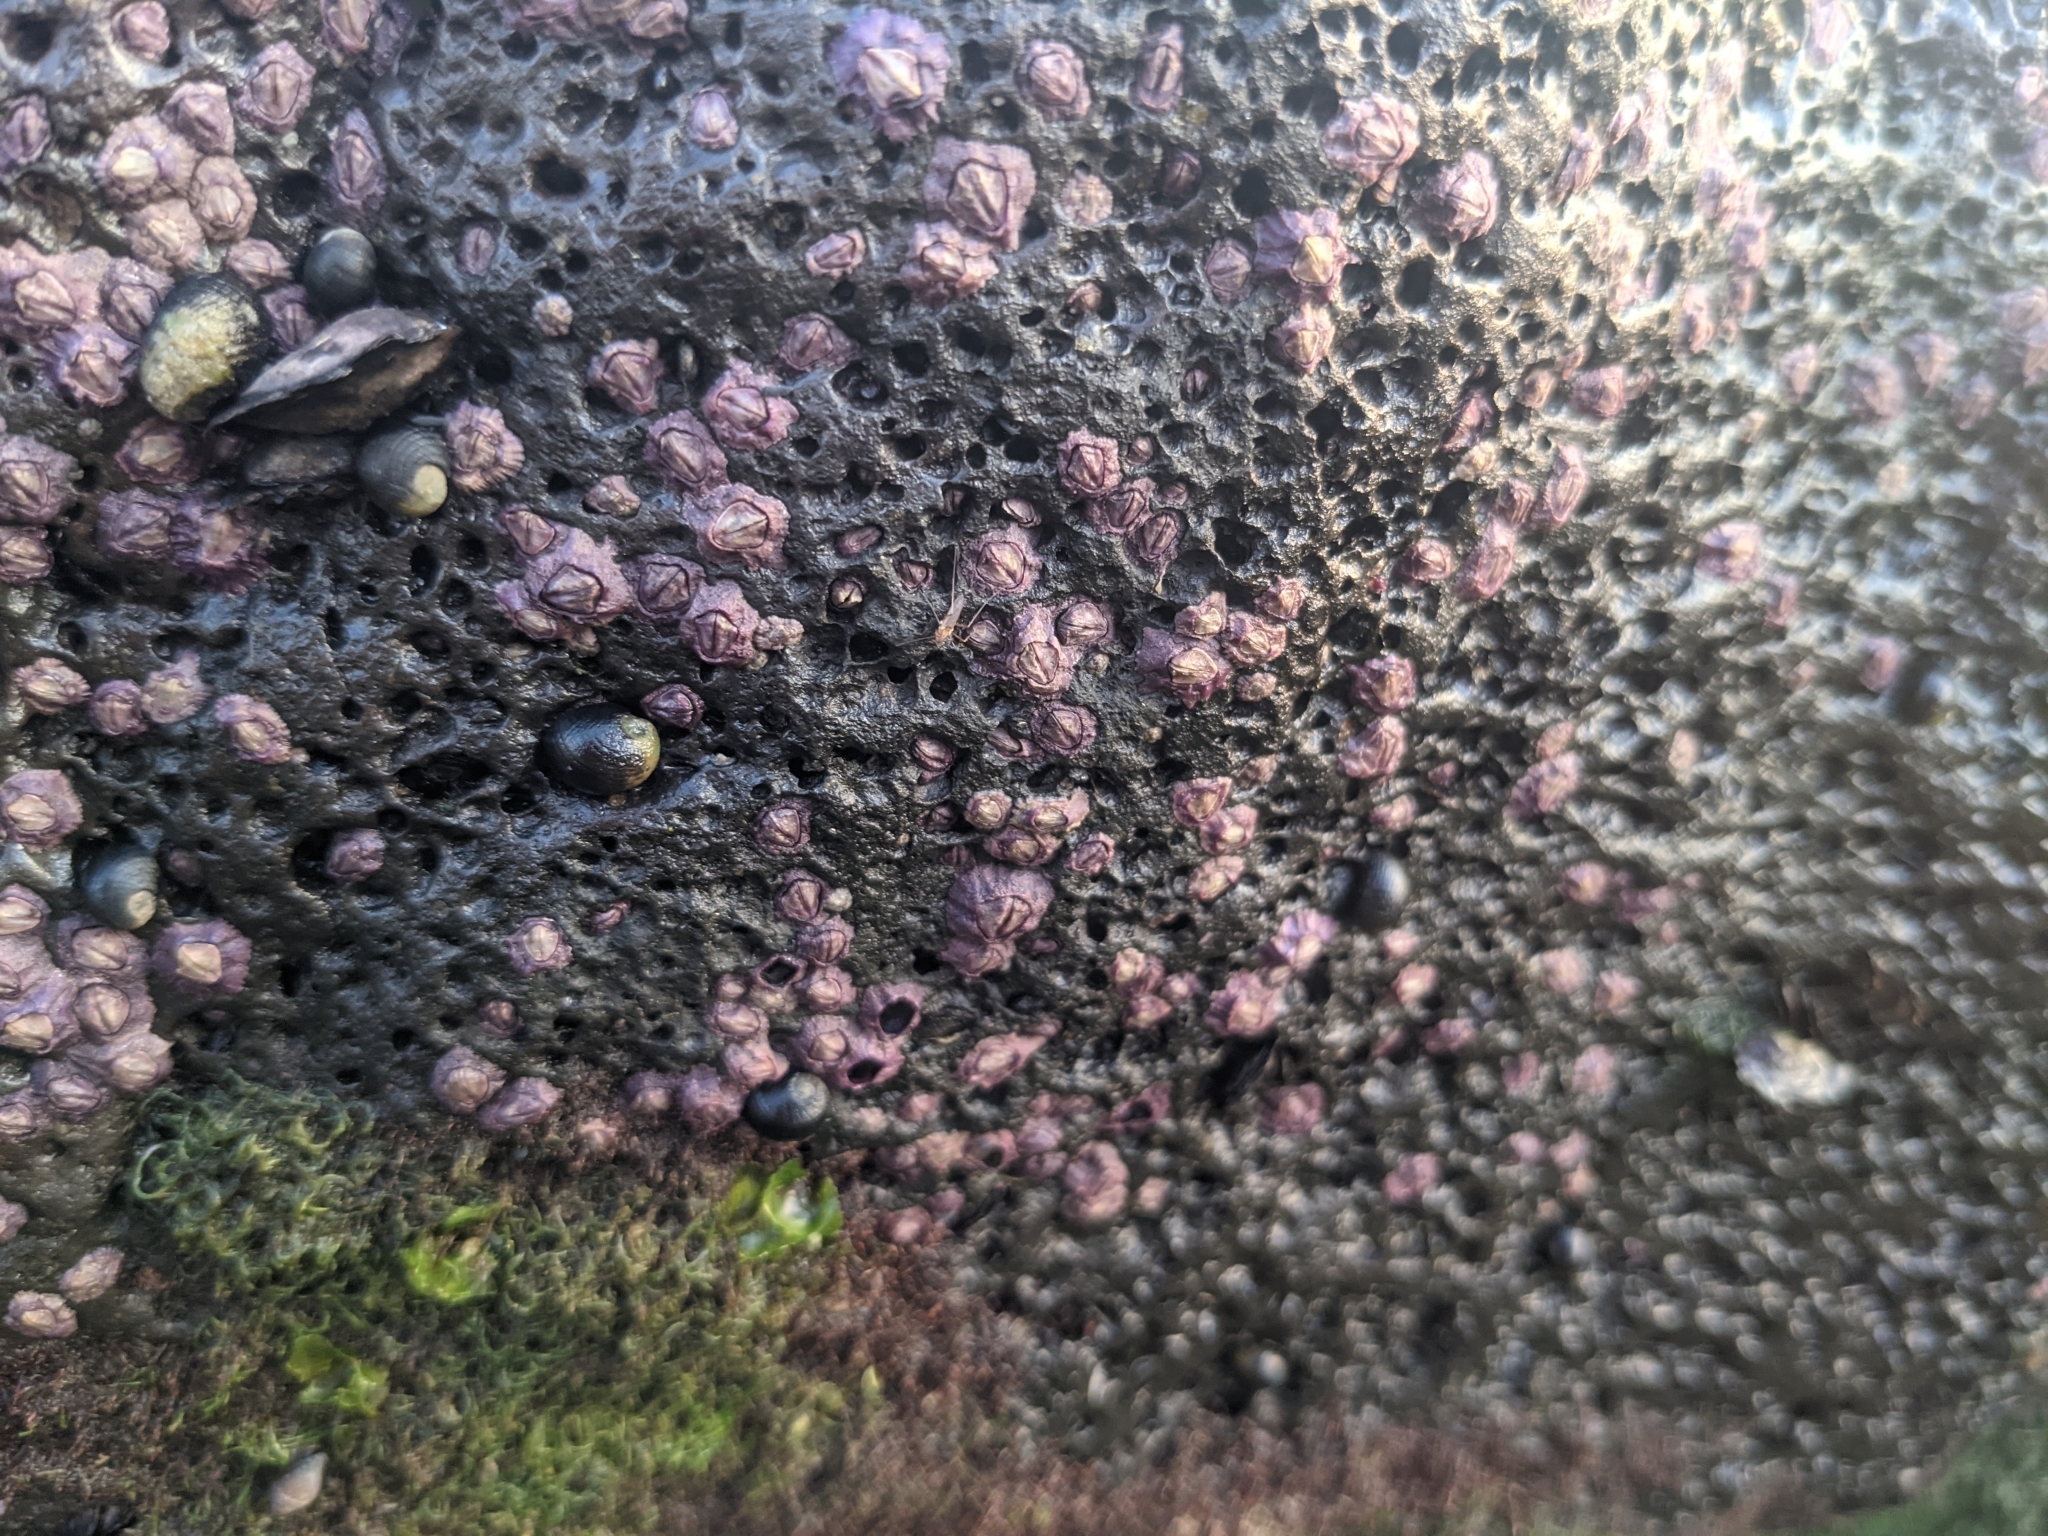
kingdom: Animalia
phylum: Arthropoda
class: Maxillopoda
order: Sessilia
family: Chthamalidae
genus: Nesochthamalus
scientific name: Nesochthamalus intertextus
